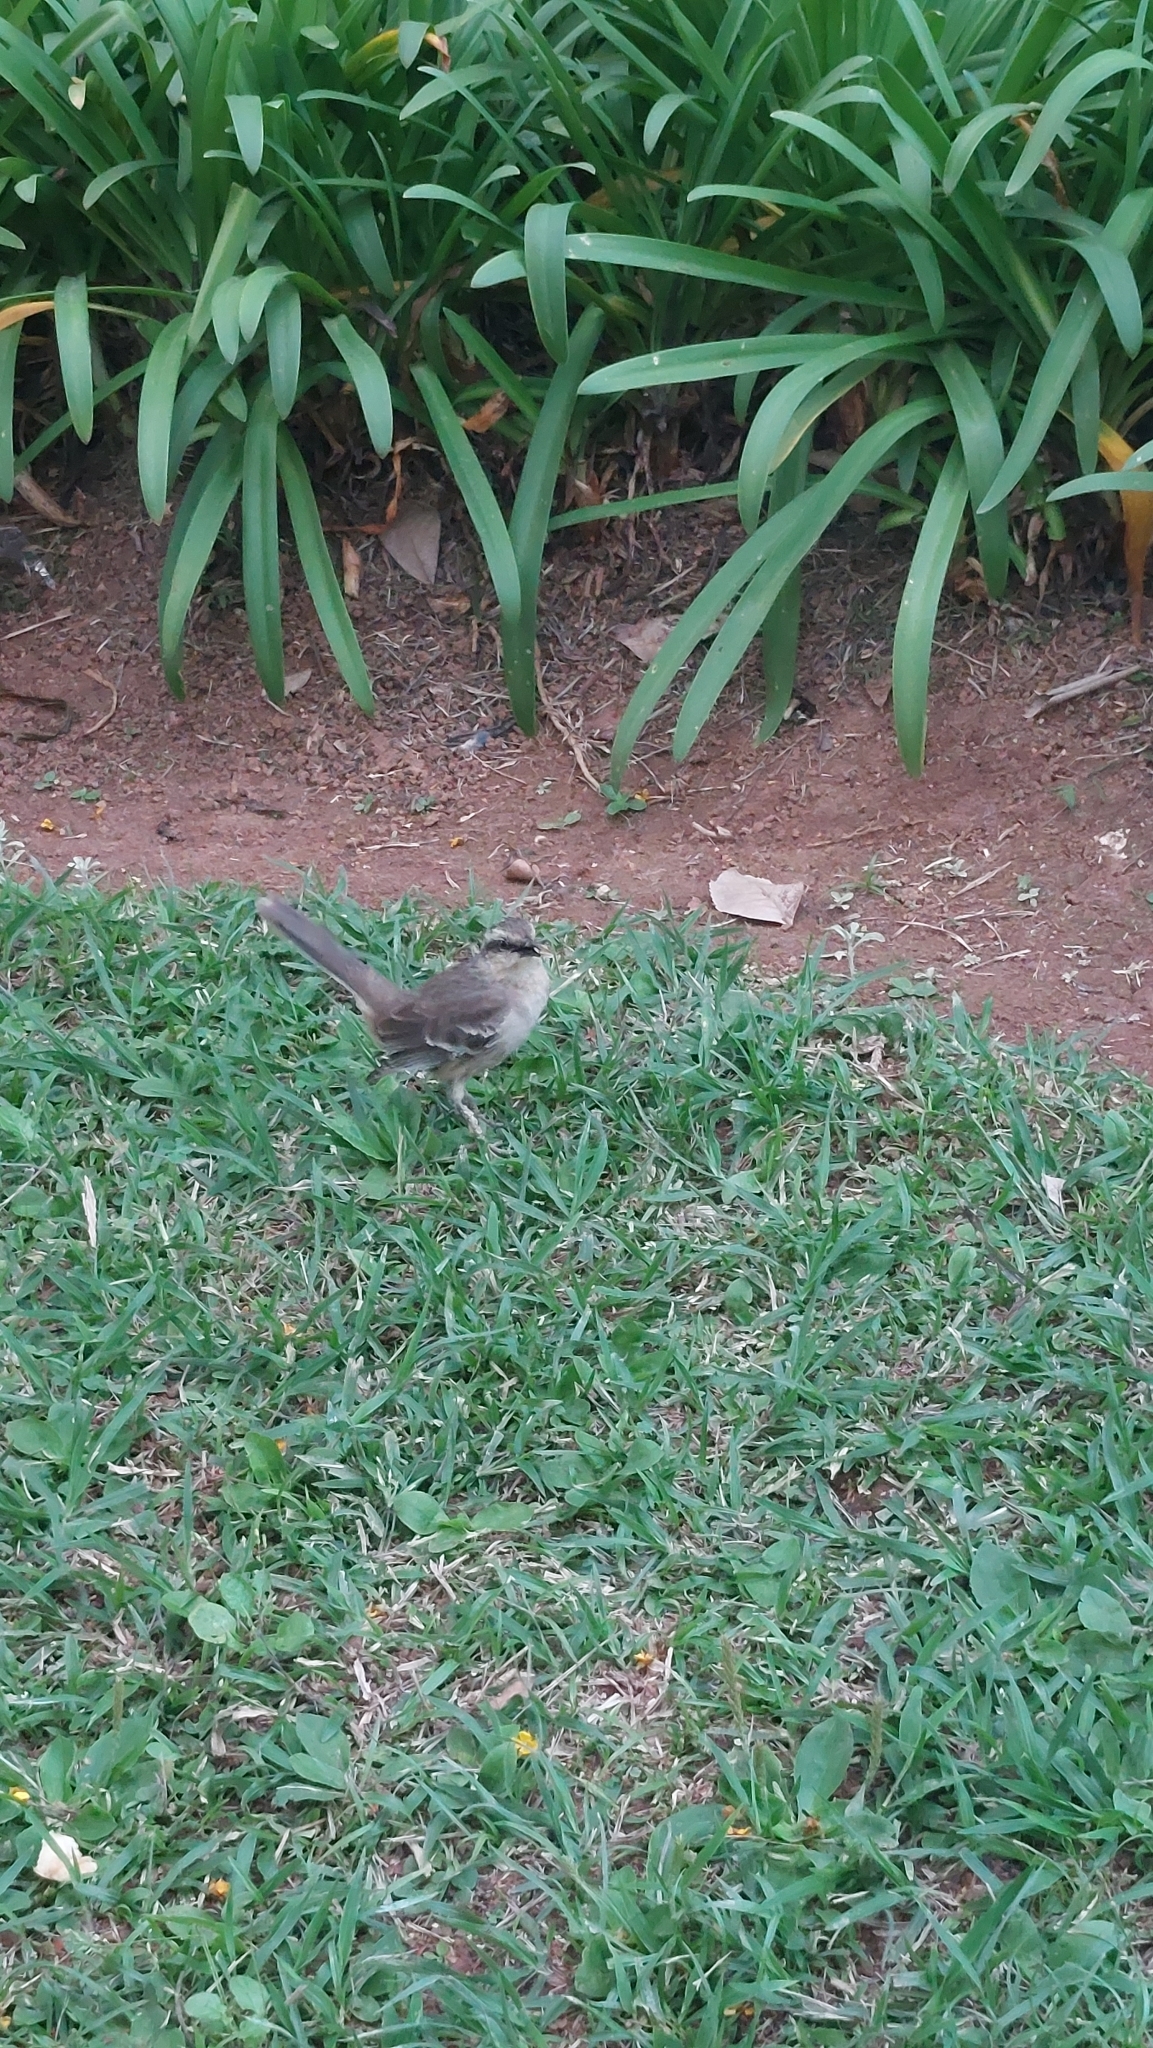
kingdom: Animalia
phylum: Chordata
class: Aves
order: Passeriformes
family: Mimidae
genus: Mimus
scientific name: Mimus saturninus
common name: Chalk-browed mockingbird
